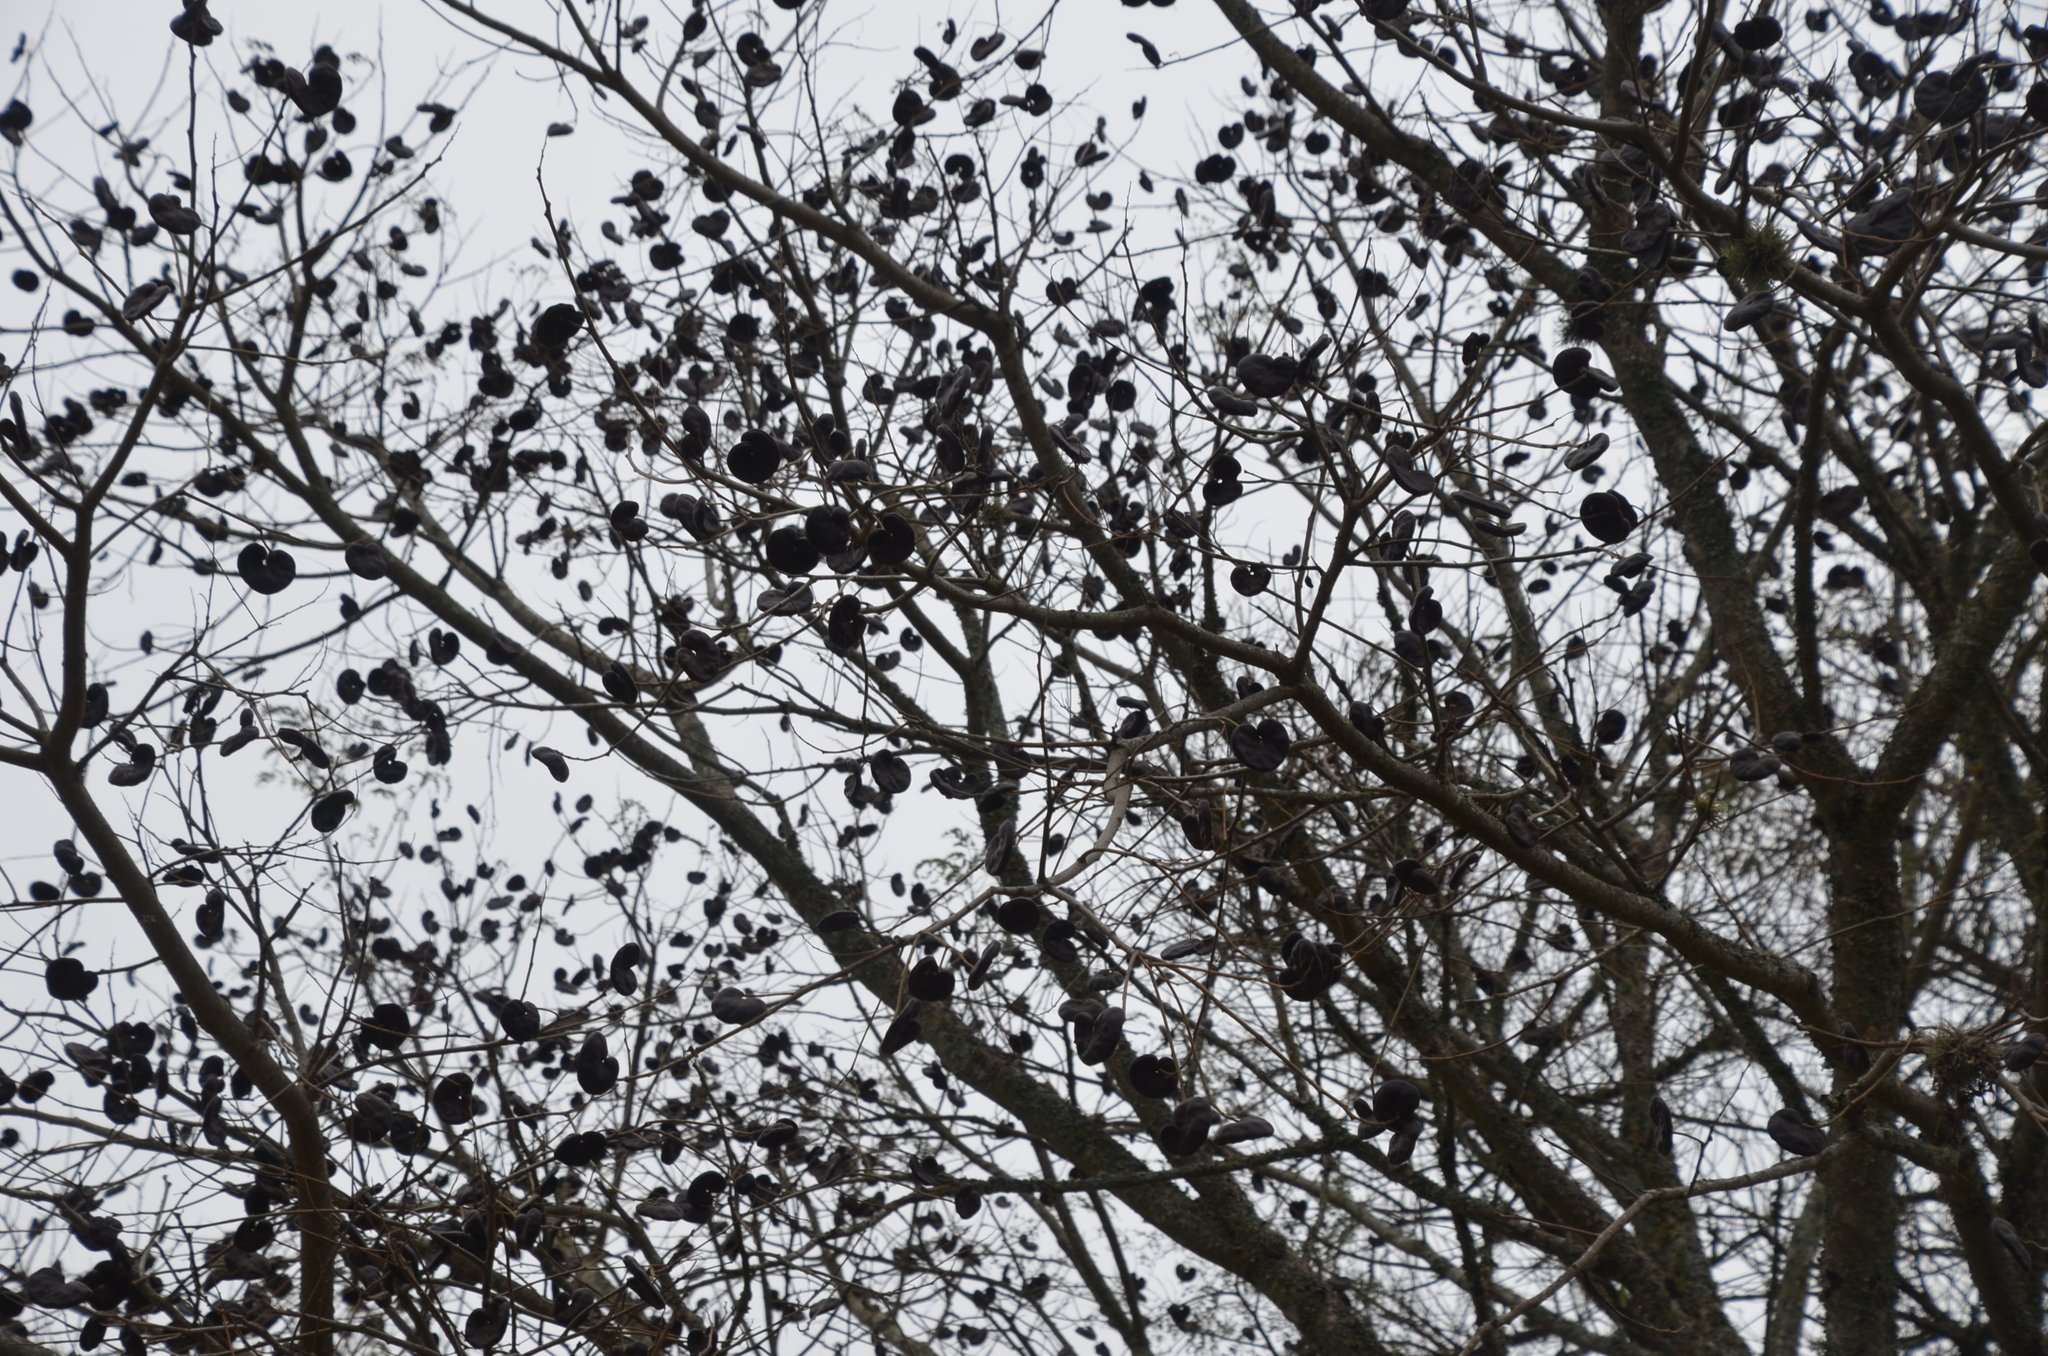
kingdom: Plantae
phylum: Tracheophyta
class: Magnoliopsida
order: Fabales
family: Fabaceae
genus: Enterolobium
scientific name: Enterolobium contortisiliquum
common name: Pacara earpod tree
